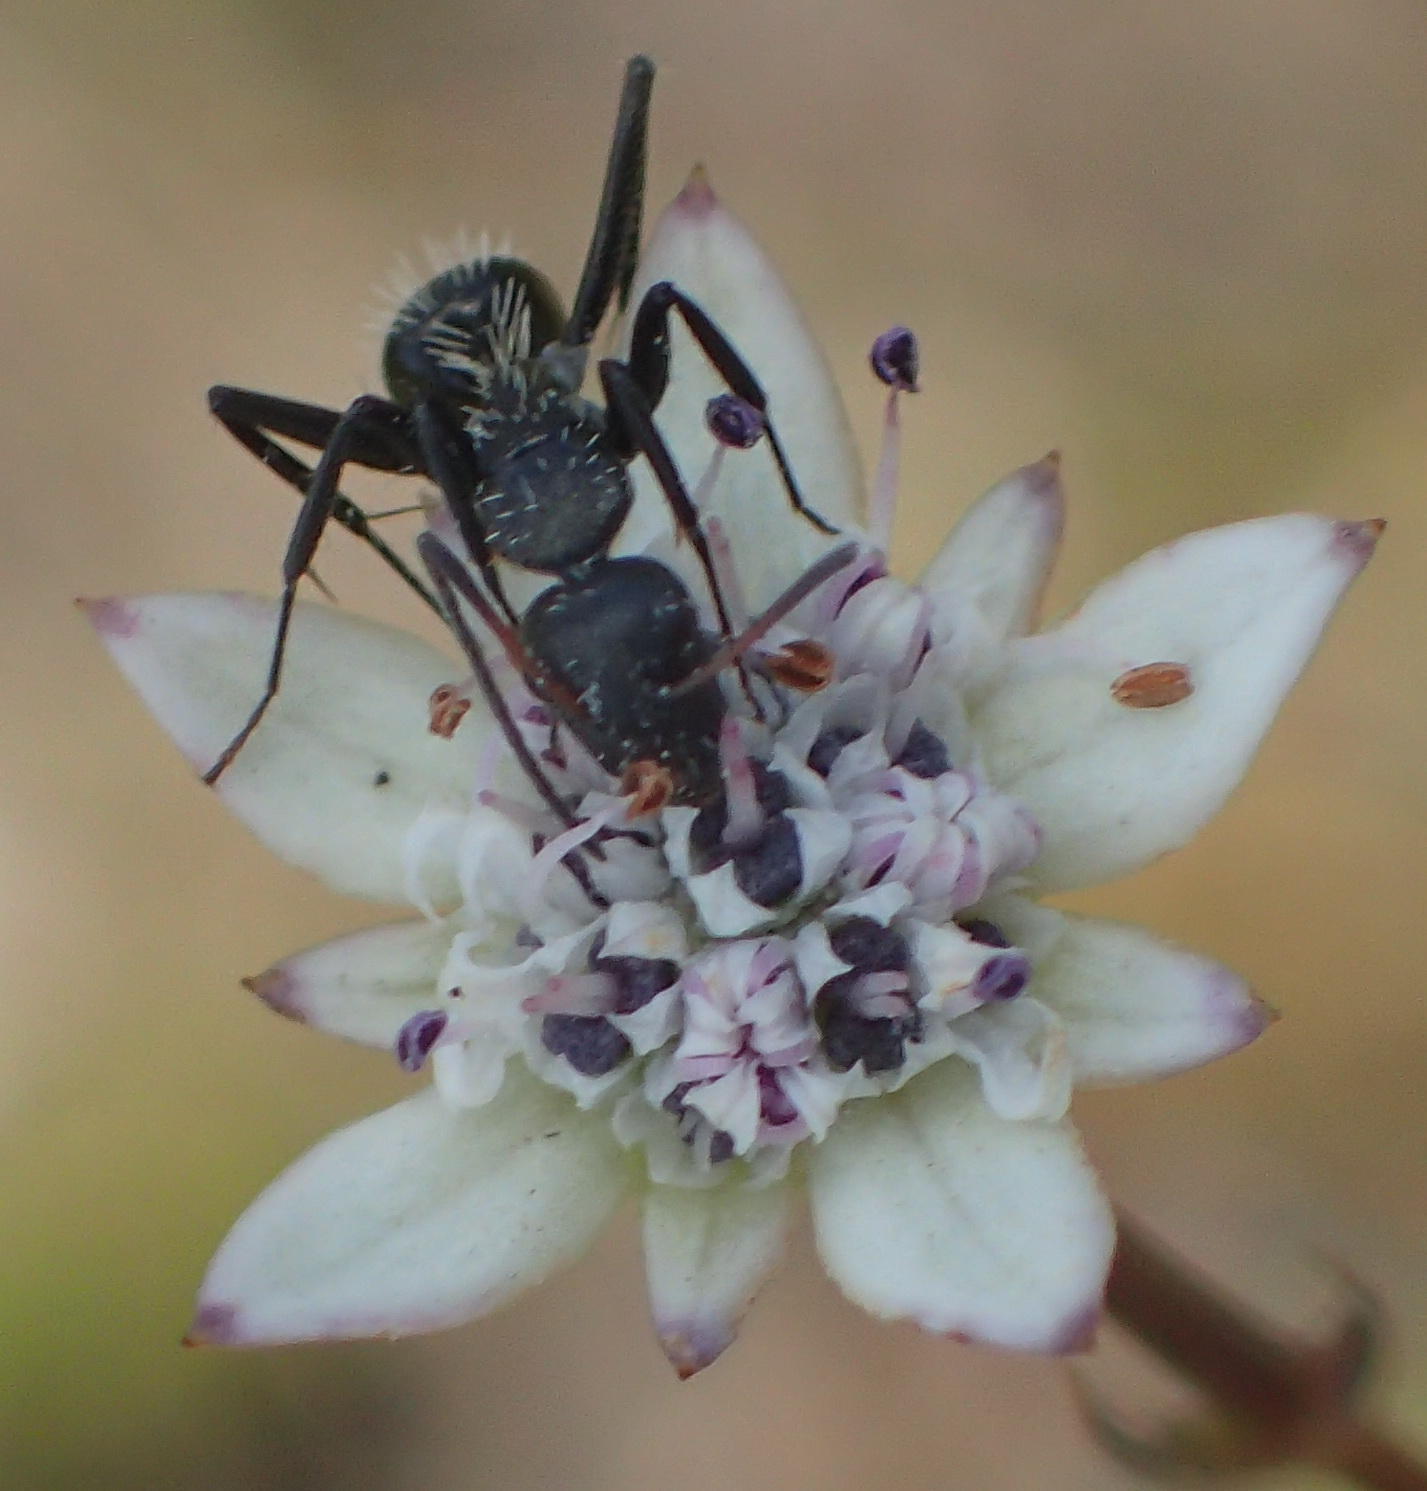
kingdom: Animalia
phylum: Arthropoda
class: Insecta
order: Hymenoptera
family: Formicidae
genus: Camponotus
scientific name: Camponotus niveosetosus
